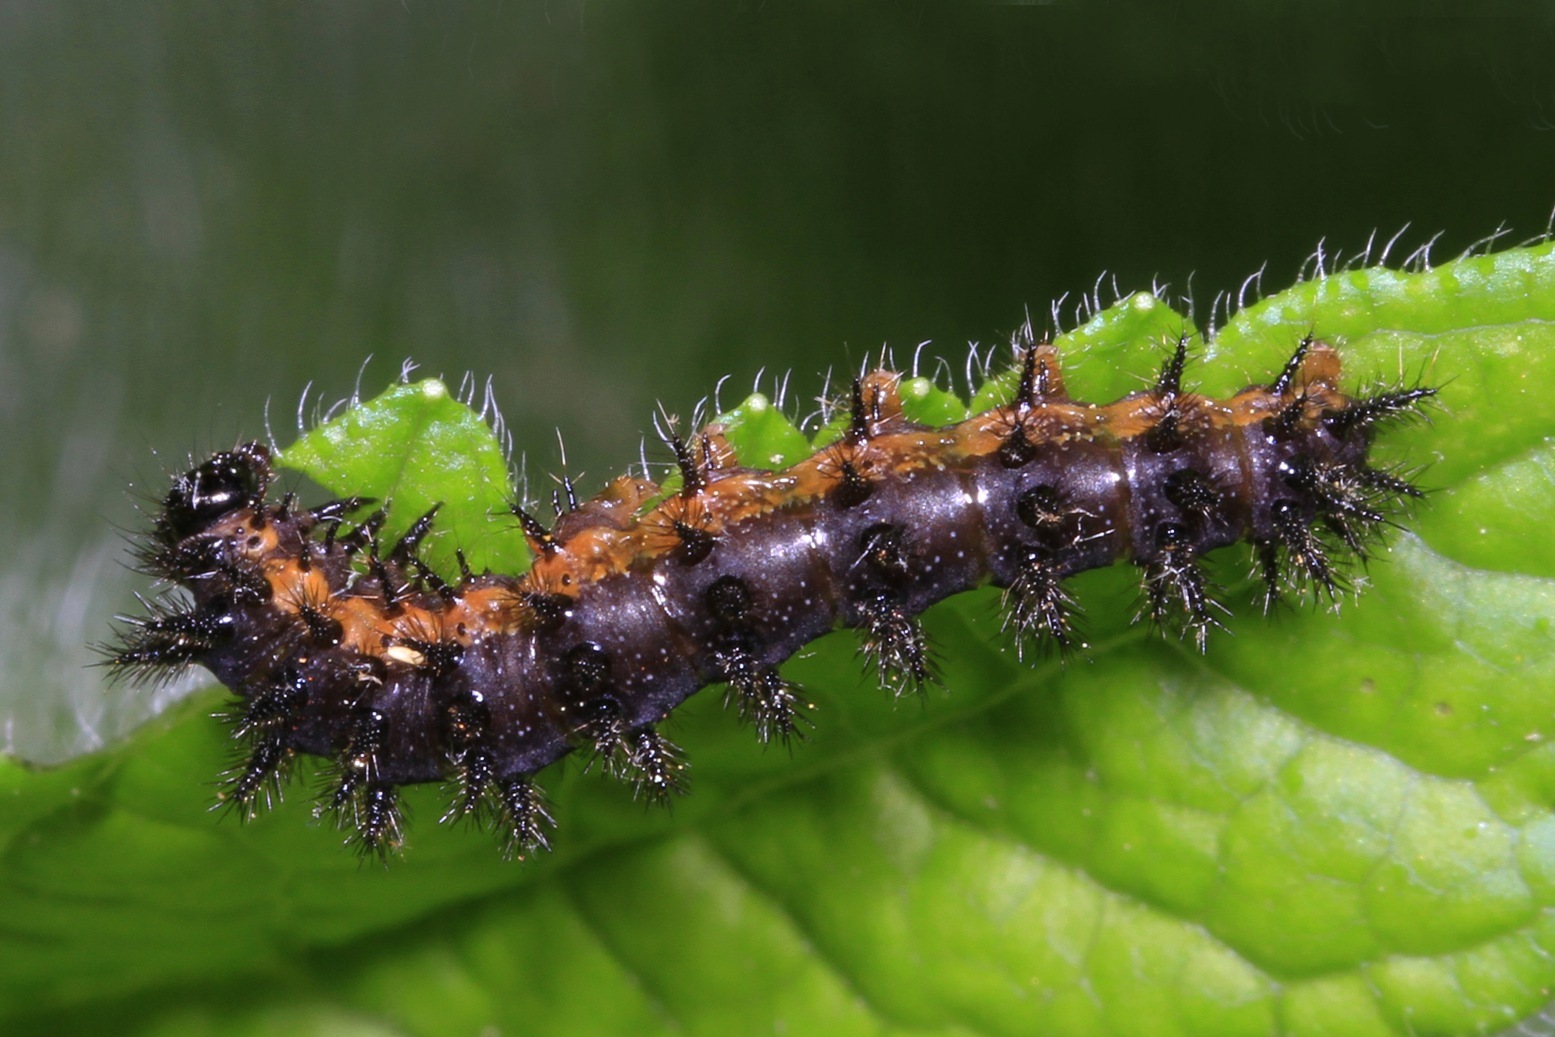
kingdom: Animalia
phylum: Arthropoda
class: Insecta
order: Lepidoptera
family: Nymphalidae
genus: Chlosyne
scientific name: Chlosyne nycteis
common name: Silvery checkerspot
